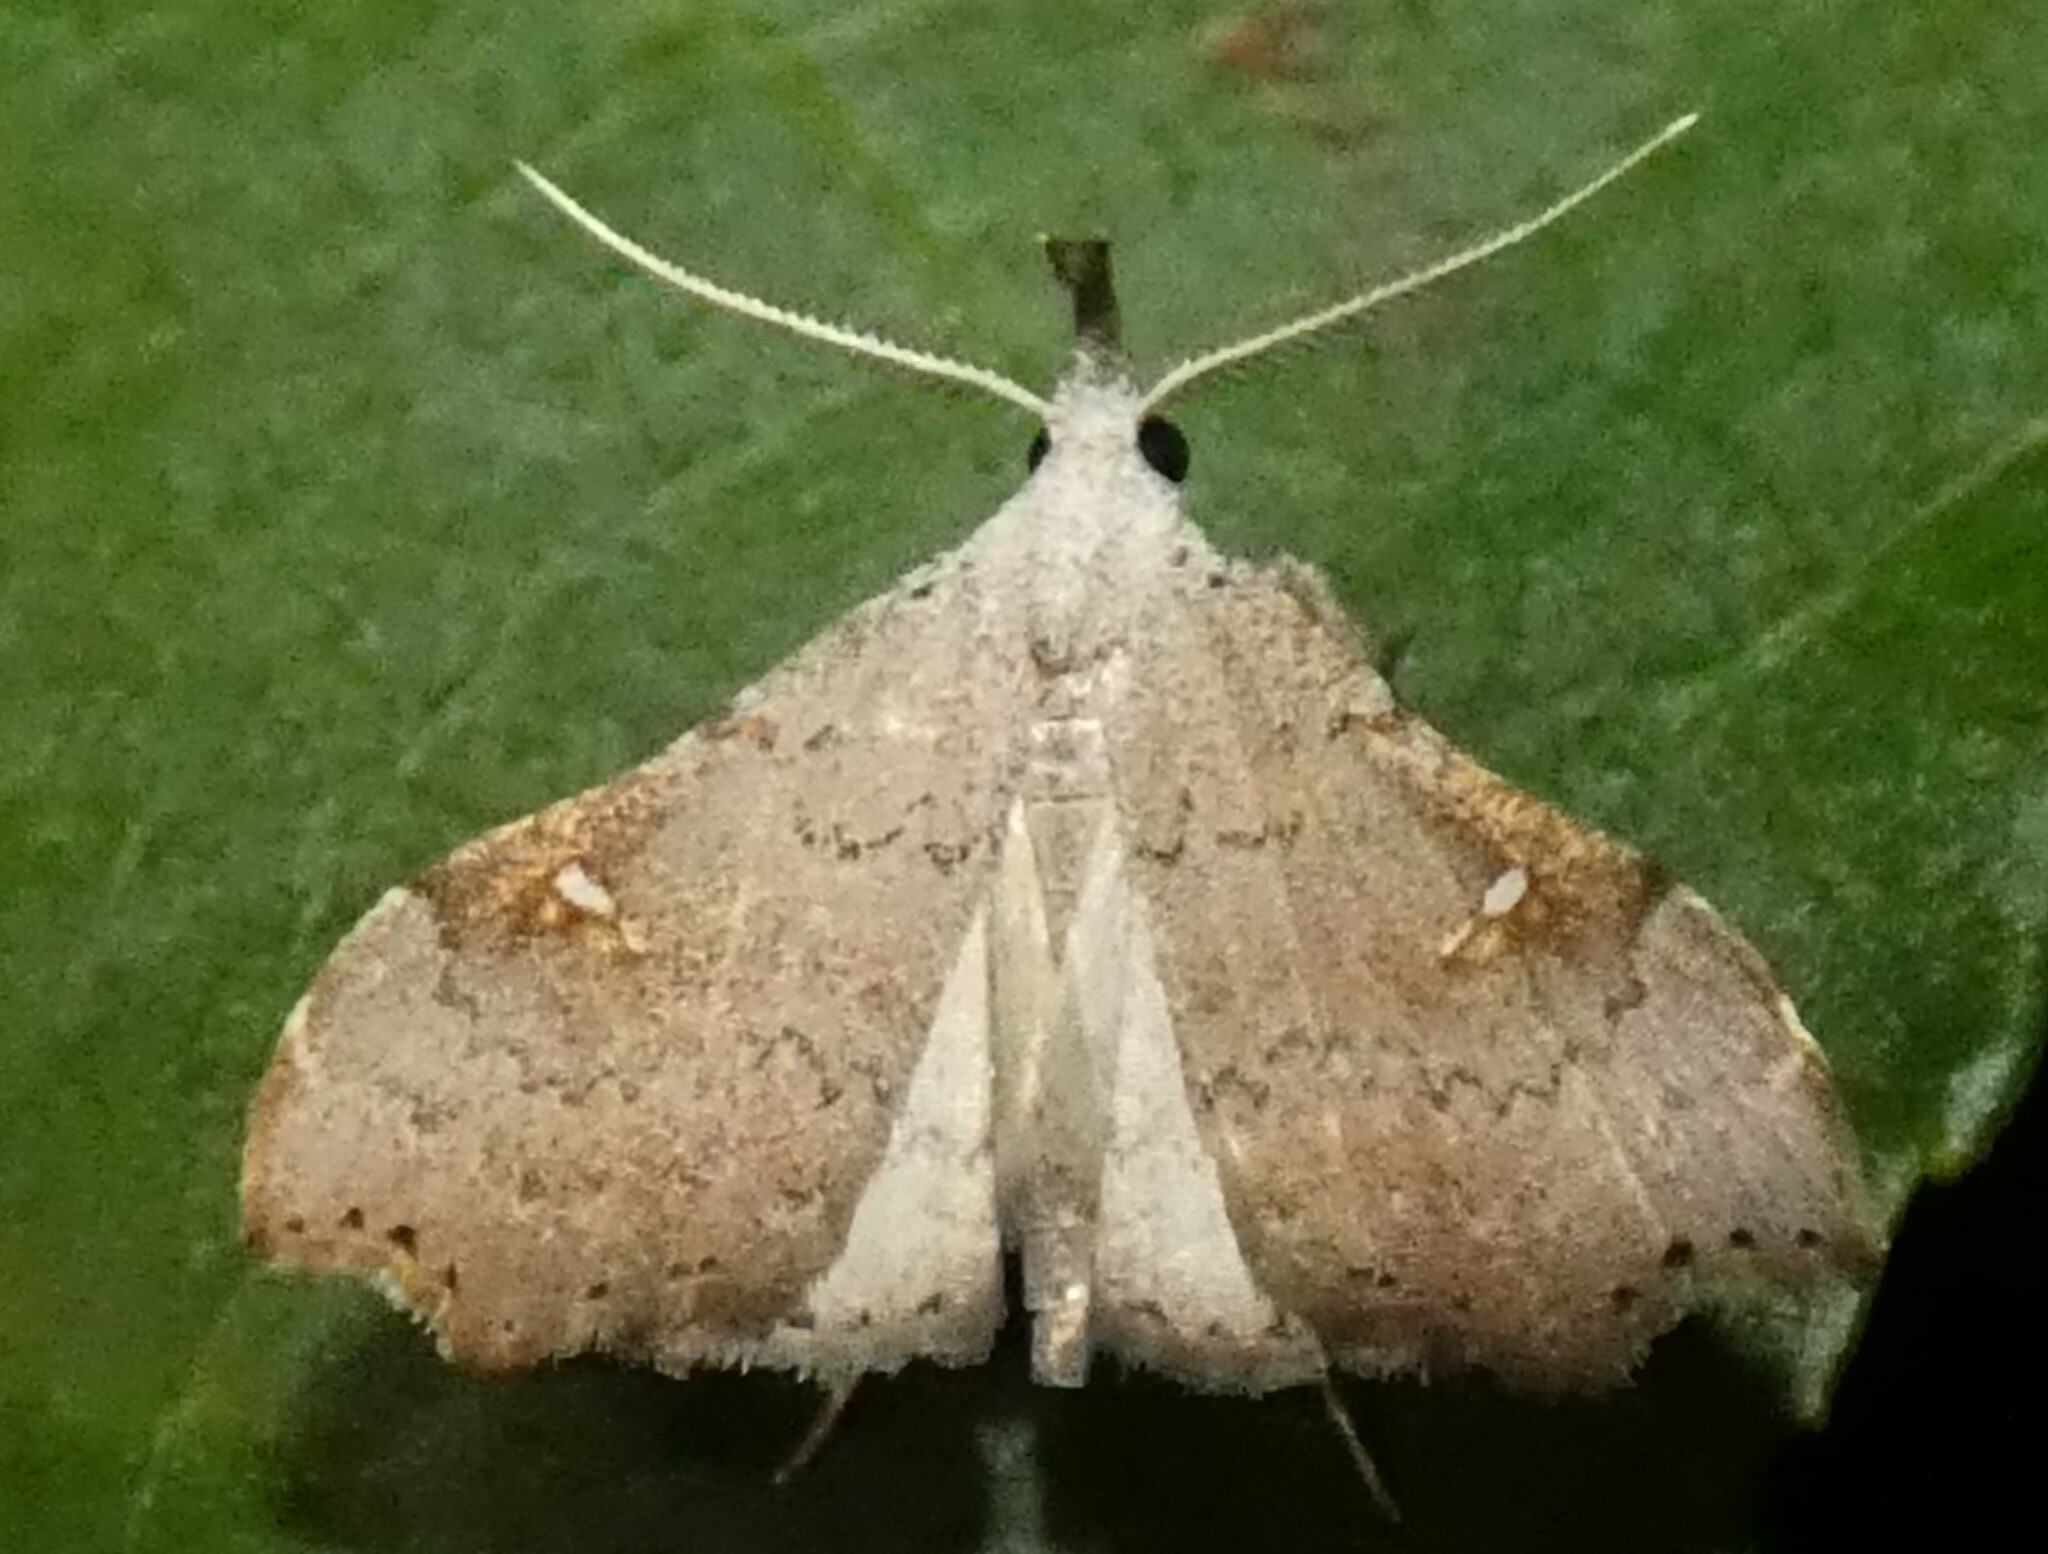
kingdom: Animalia
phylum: Arthropoda
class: Insecta
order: Lepidoptera
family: Erebidae
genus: Redectis
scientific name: Redectis vitrea
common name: White-spotted redectis
